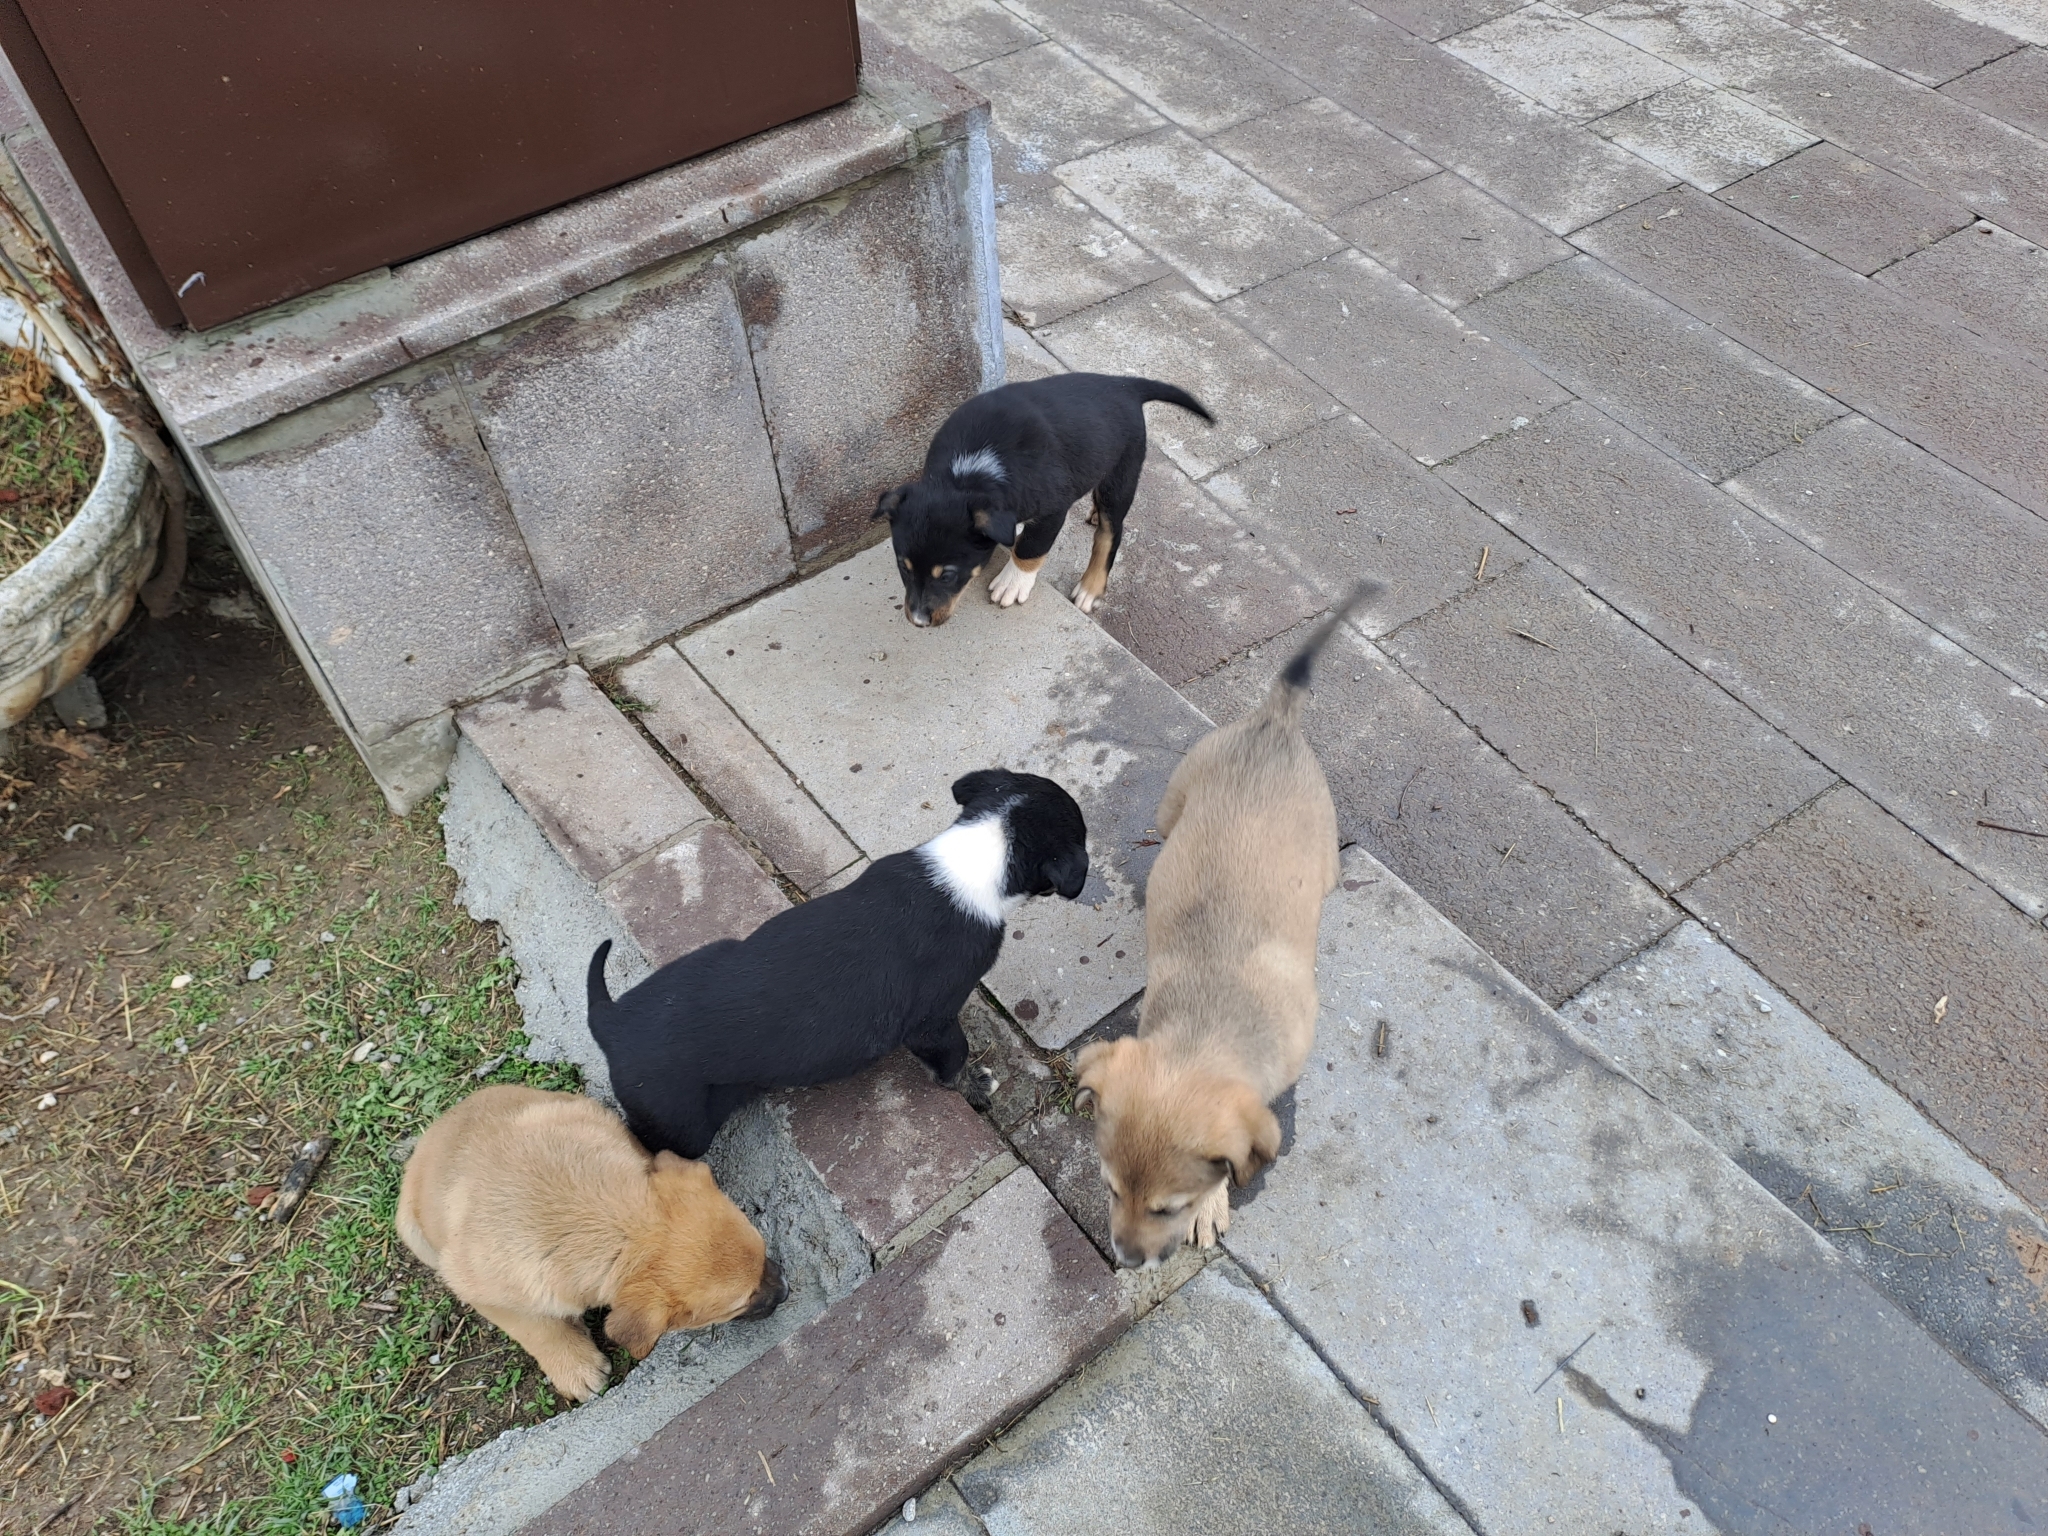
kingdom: Animalia
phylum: Chordata
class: Mammalia
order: Carnivora
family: Canidae
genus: Canis
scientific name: Canis lupus
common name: Gray wolf
